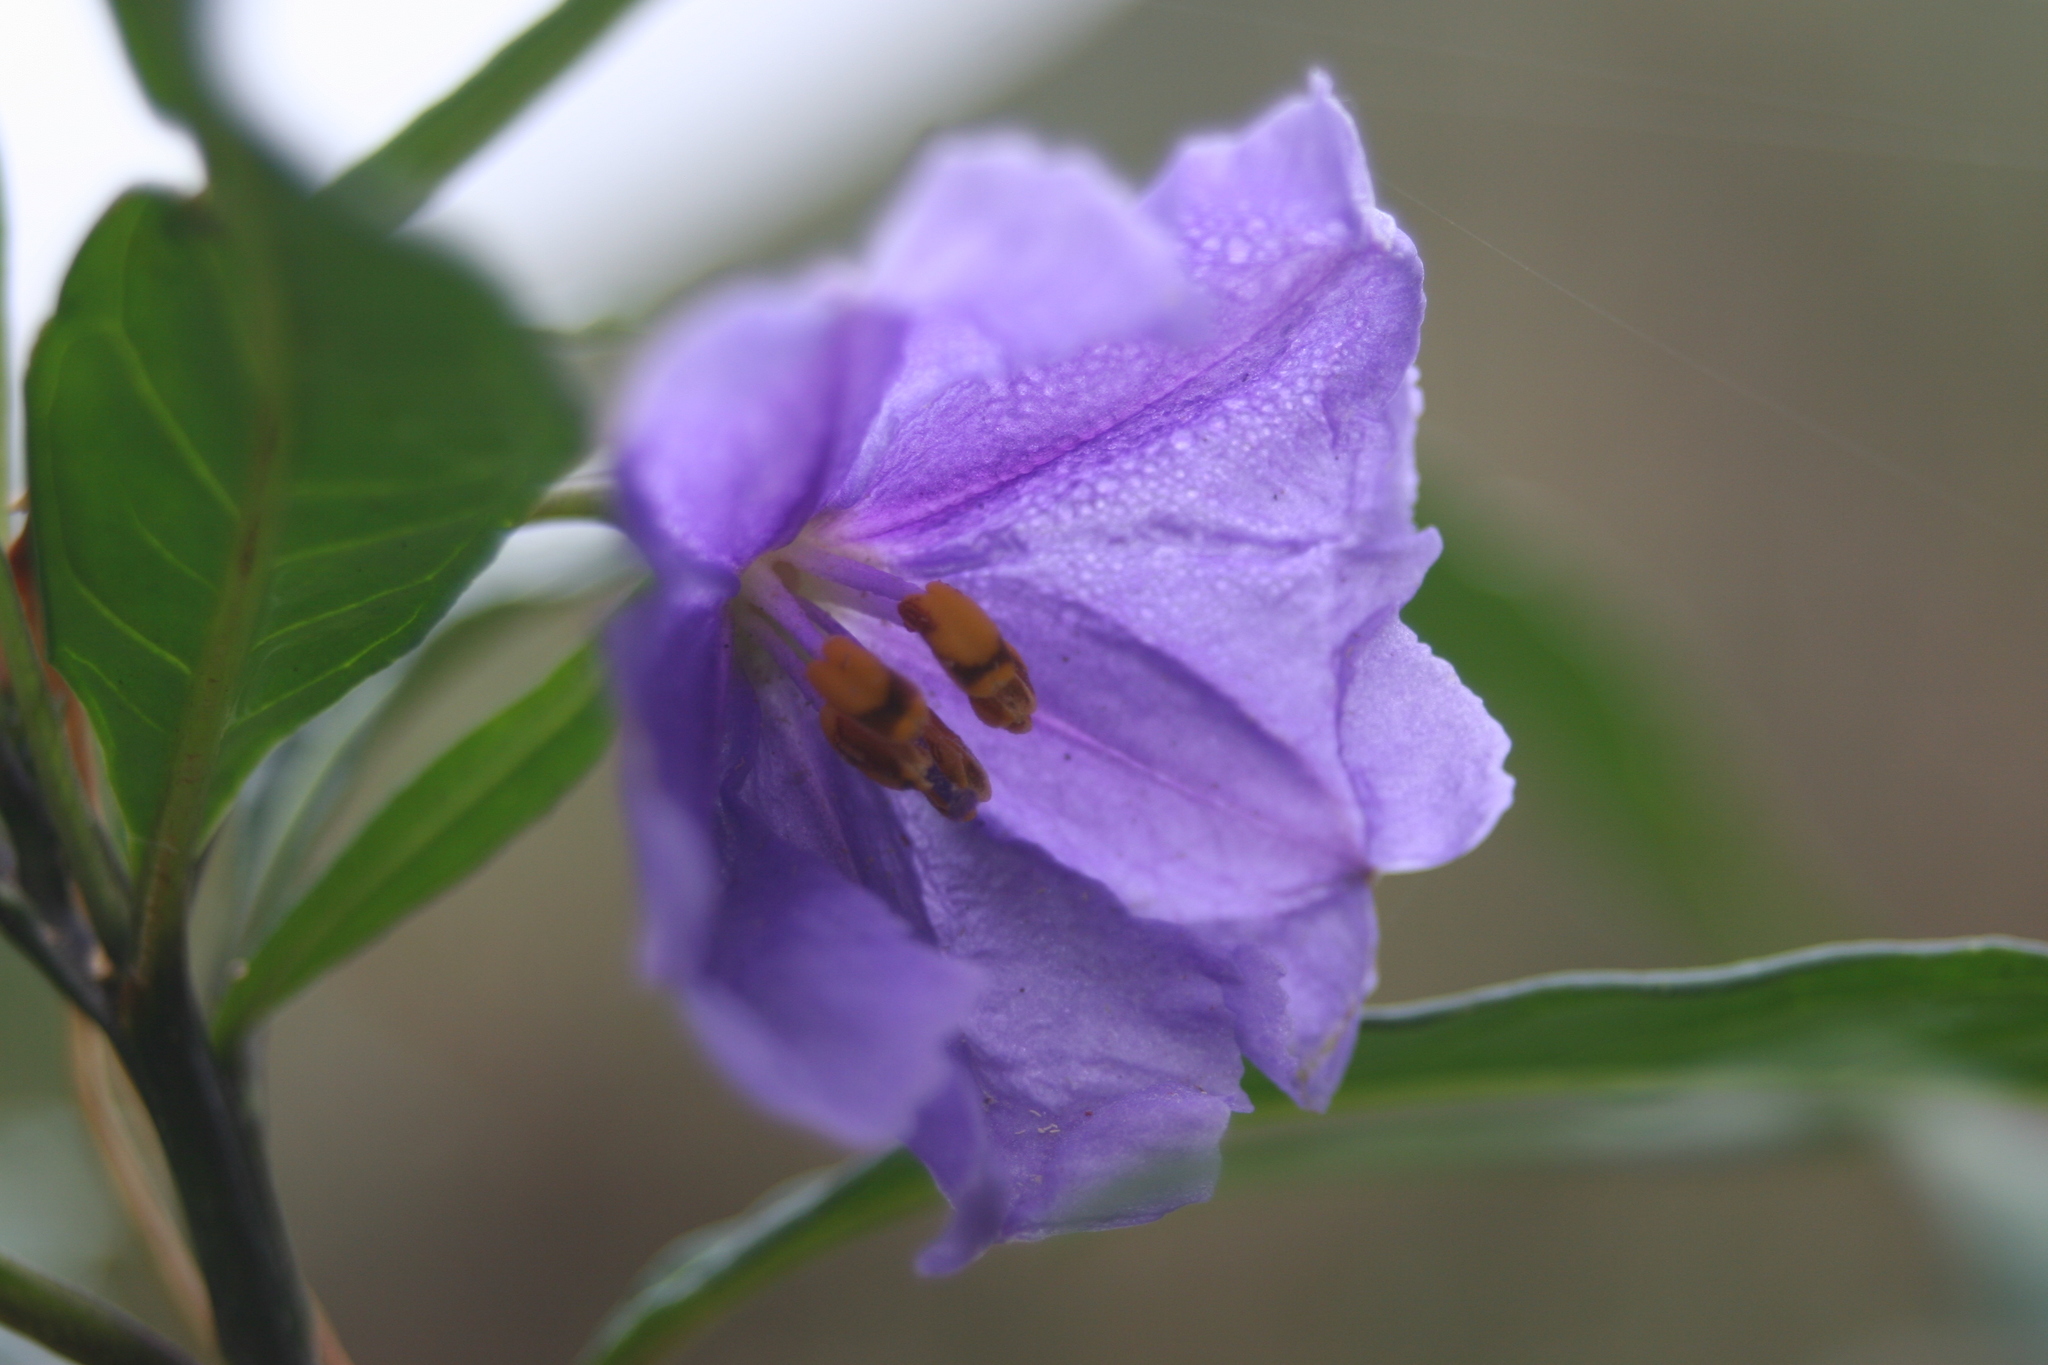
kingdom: Plantae
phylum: Tracheophyta
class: Magnoliopsida
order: Solanales
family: Solanaceae
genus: Solanum
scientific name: Solanum laciniatum
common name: Kangaroo-apple
